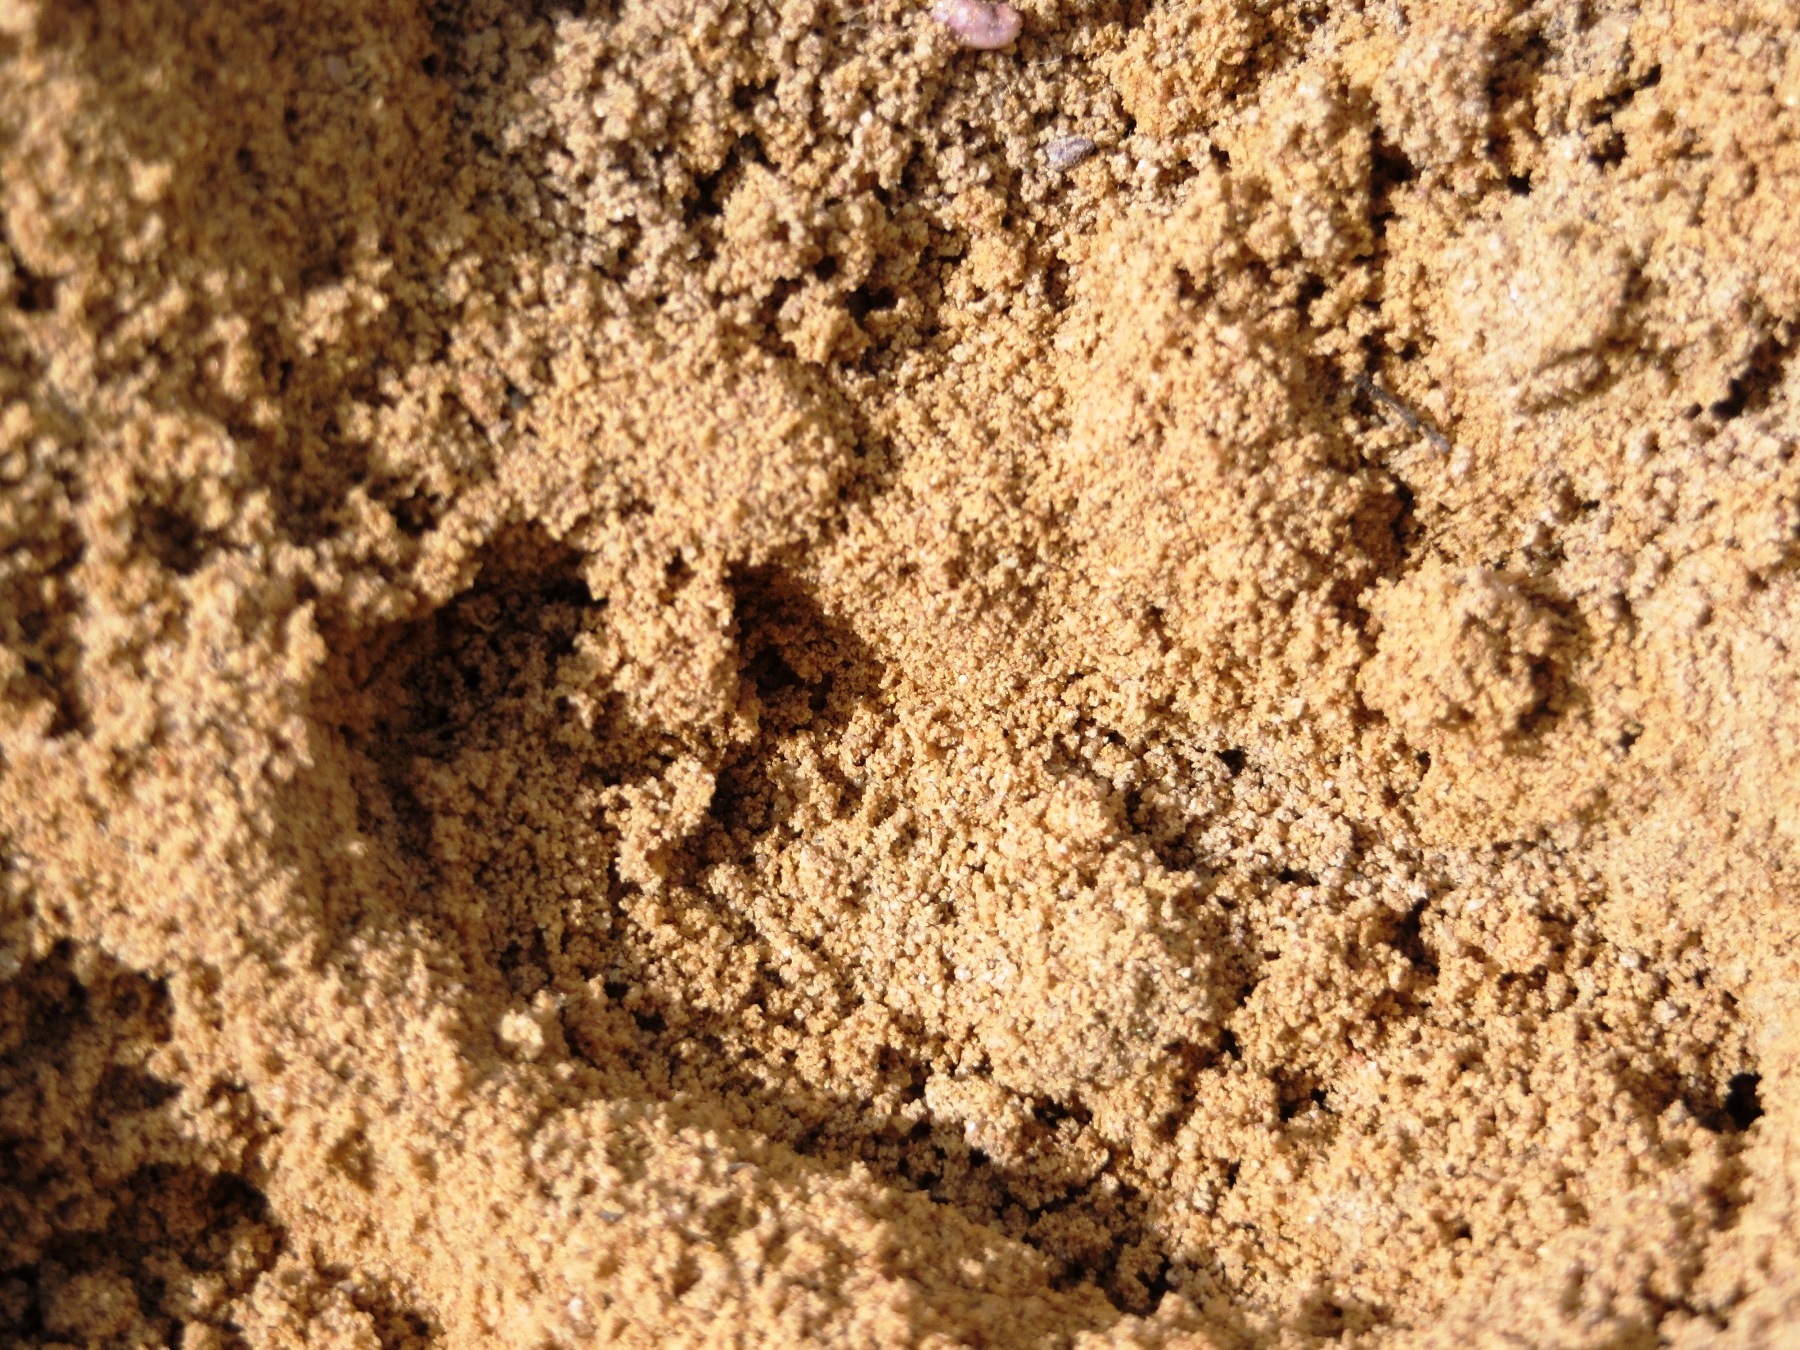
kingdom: Animalia
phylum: Chordata
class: Mammalia
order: Tubulidentata
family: Orycteropodidae
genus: Orycteropus
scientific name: Orycteropus afer
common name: Aardvark
